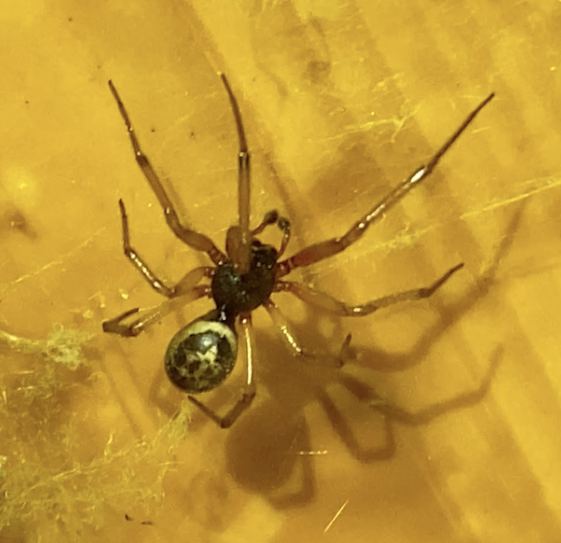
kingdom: Animalia
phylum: Arthropoda
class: Arachnida
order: Araneae
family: Theridiidae
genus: Steatoda
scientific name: Steatoda nobilis
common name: Cobweb weaver
